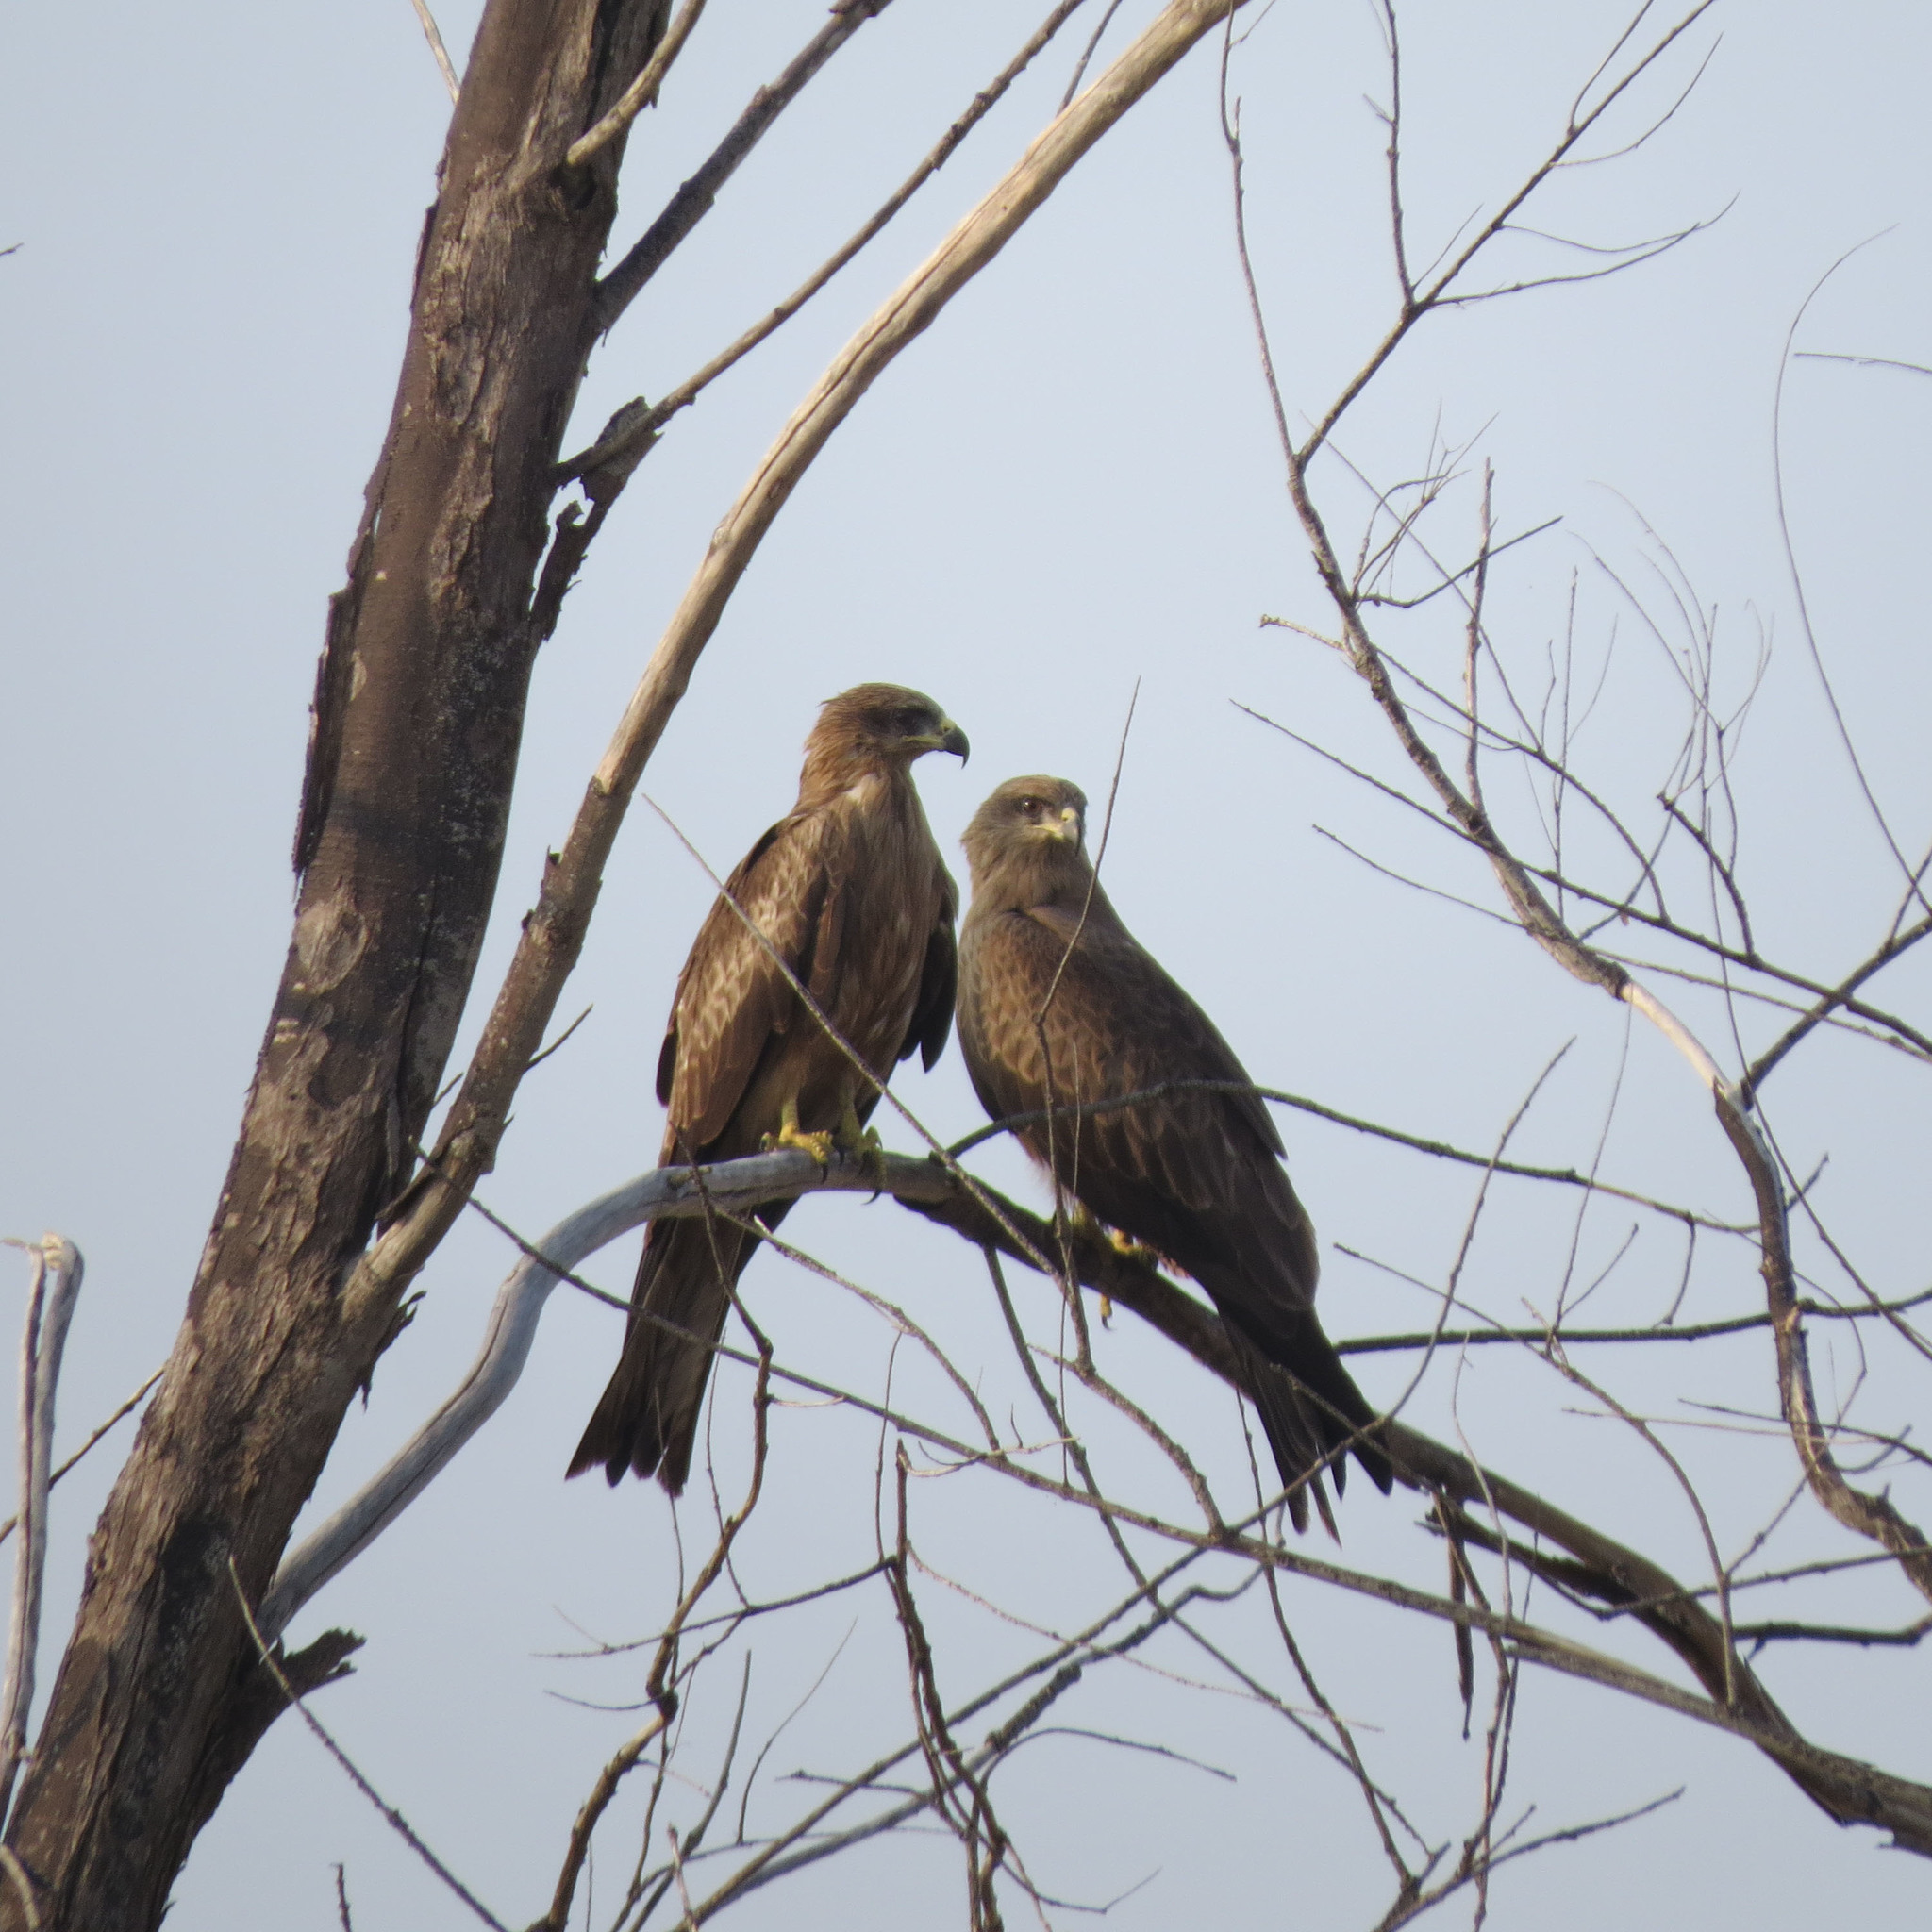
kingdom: Animalia
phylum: Chordata
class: Aves
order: Accipitriformes
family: Accipitridae
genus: Milvus
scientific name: Milvus migrans
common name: Black kite
